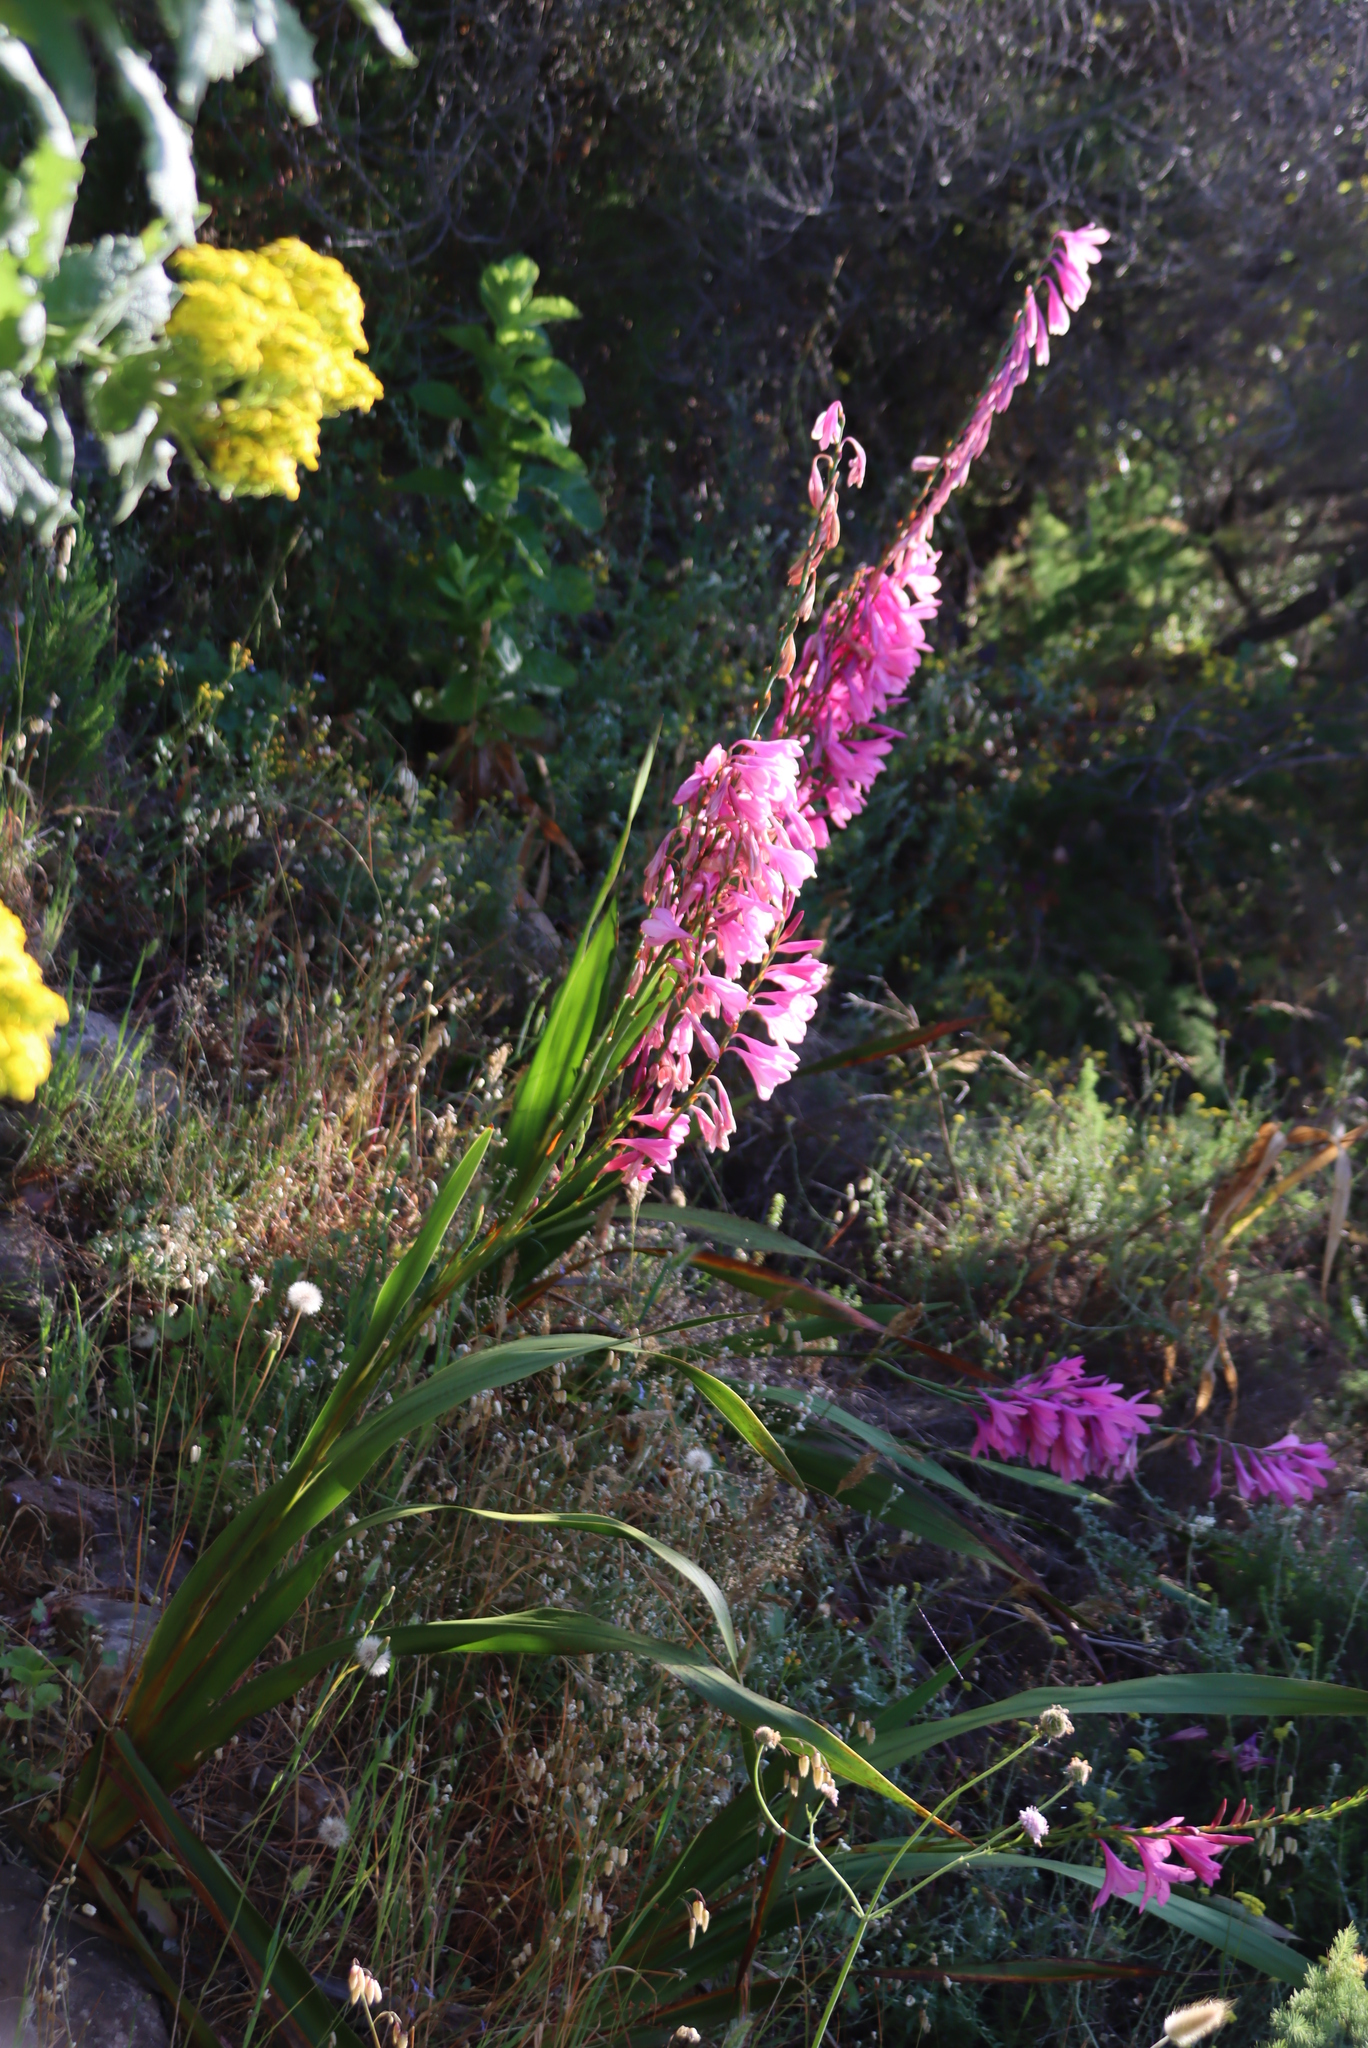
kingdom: Plantae
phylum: Tracheophyta
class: Liliopsida
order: Asparagales
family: Iridaceae
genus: Watsonia
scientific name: Watsonia borbonica
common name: Bugle-lily
